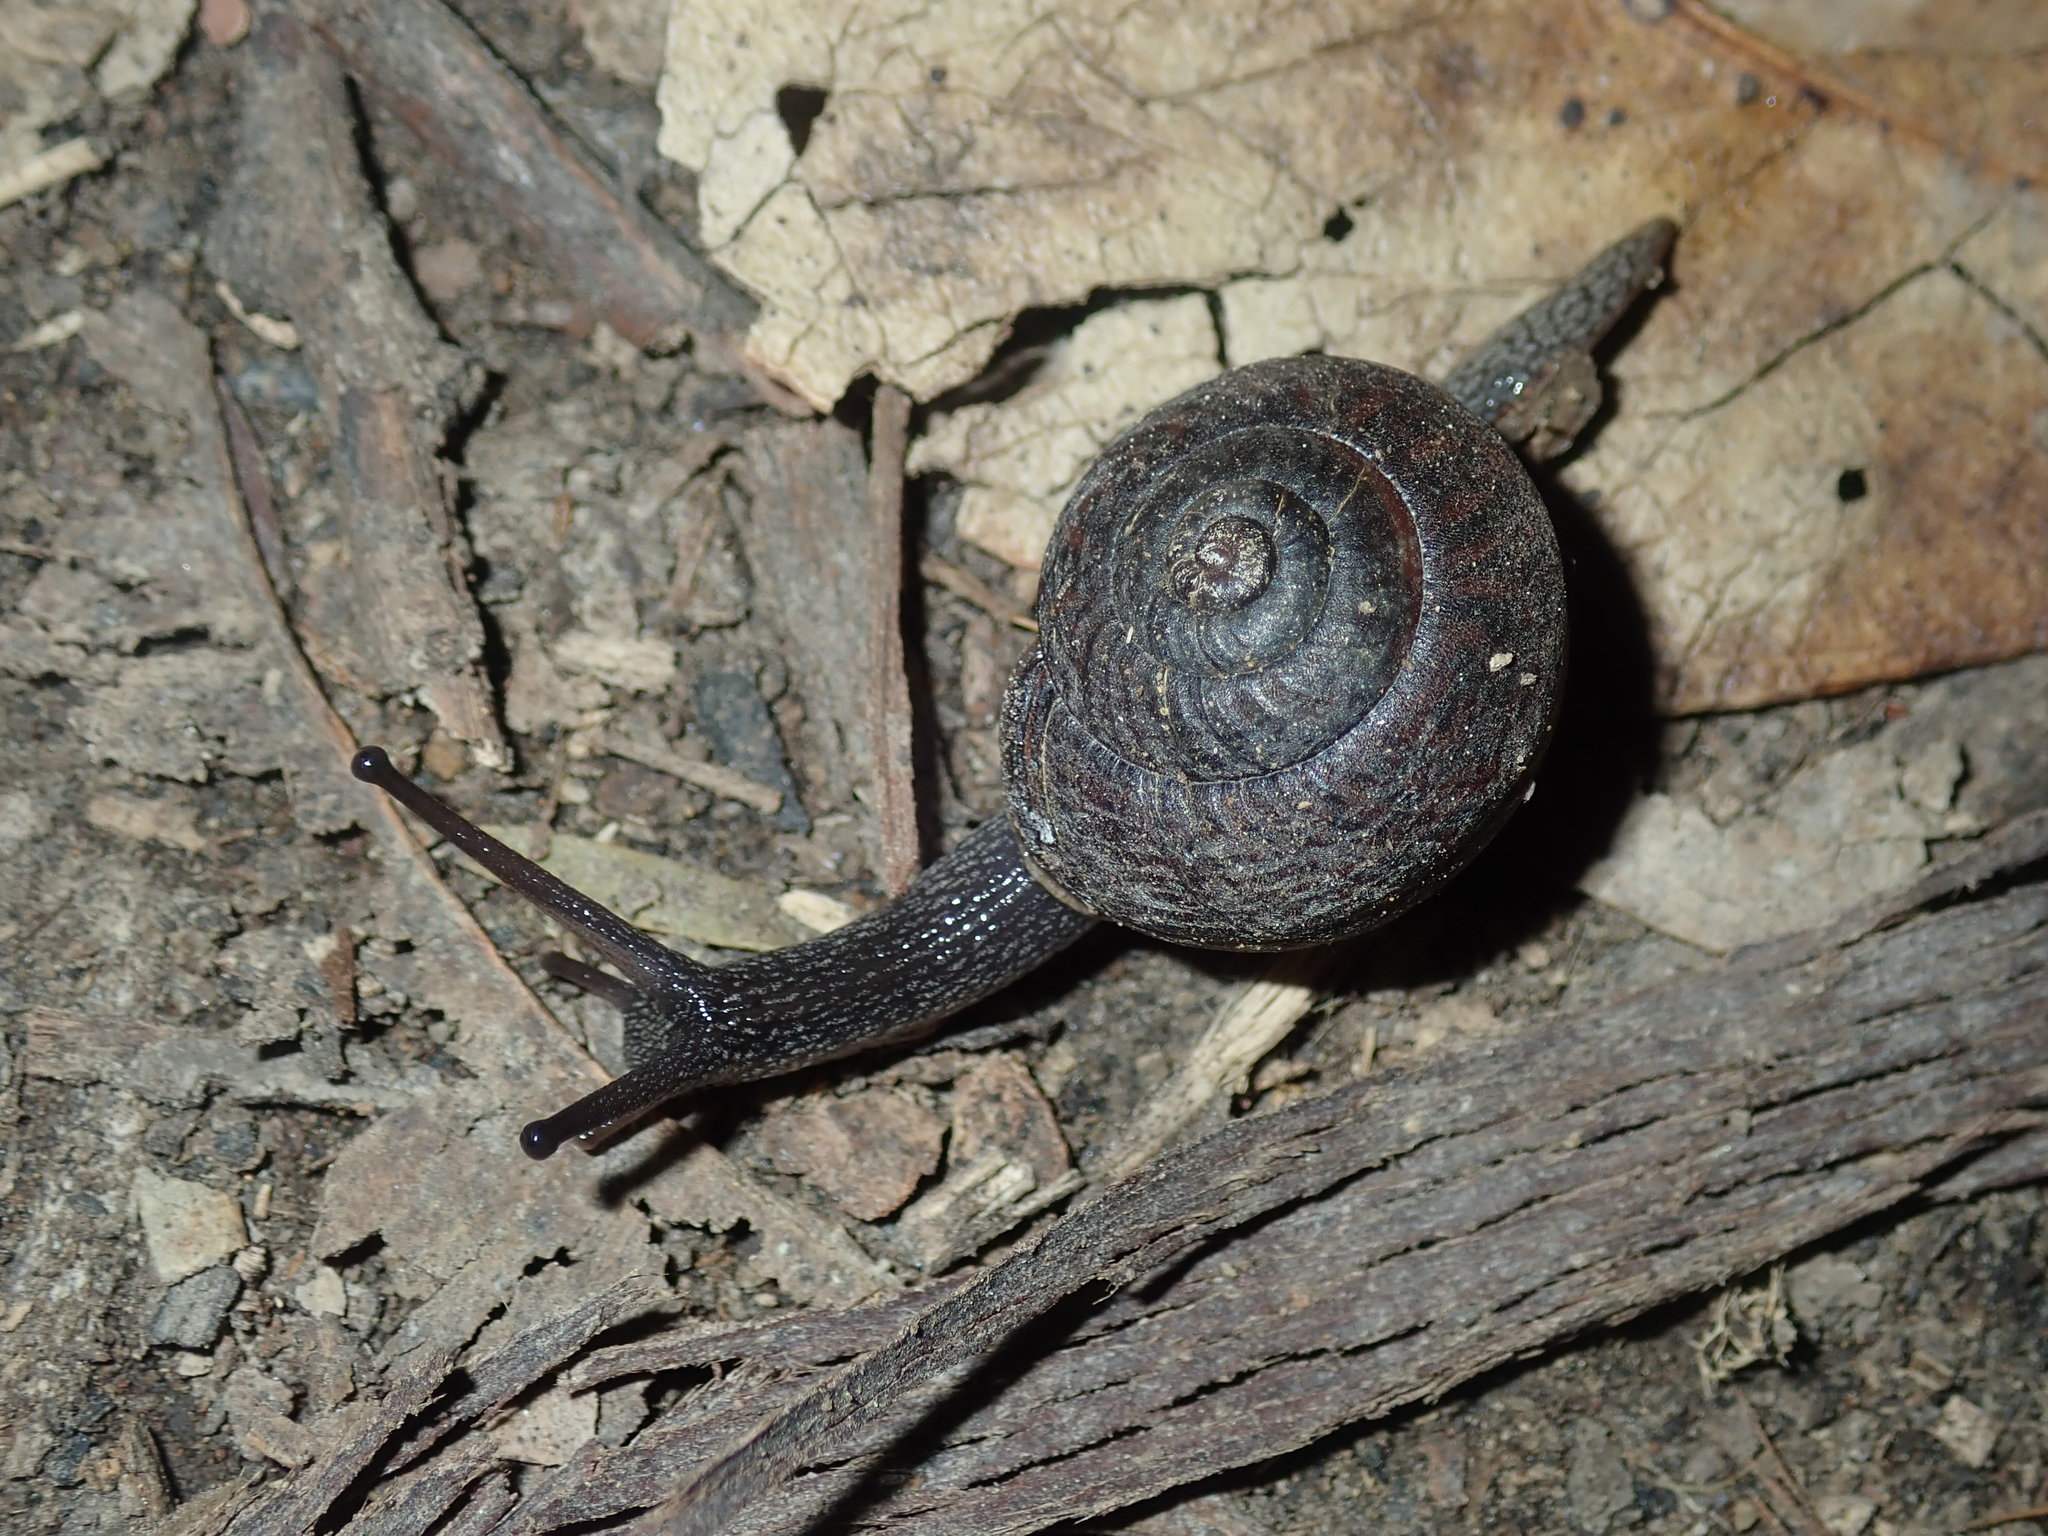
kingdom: Animalia
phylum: Mollusca
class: Gastropoda
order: Stylommatophora
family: Camaenidae
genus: Sauroconcha
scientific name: Sauroconcha sheai
